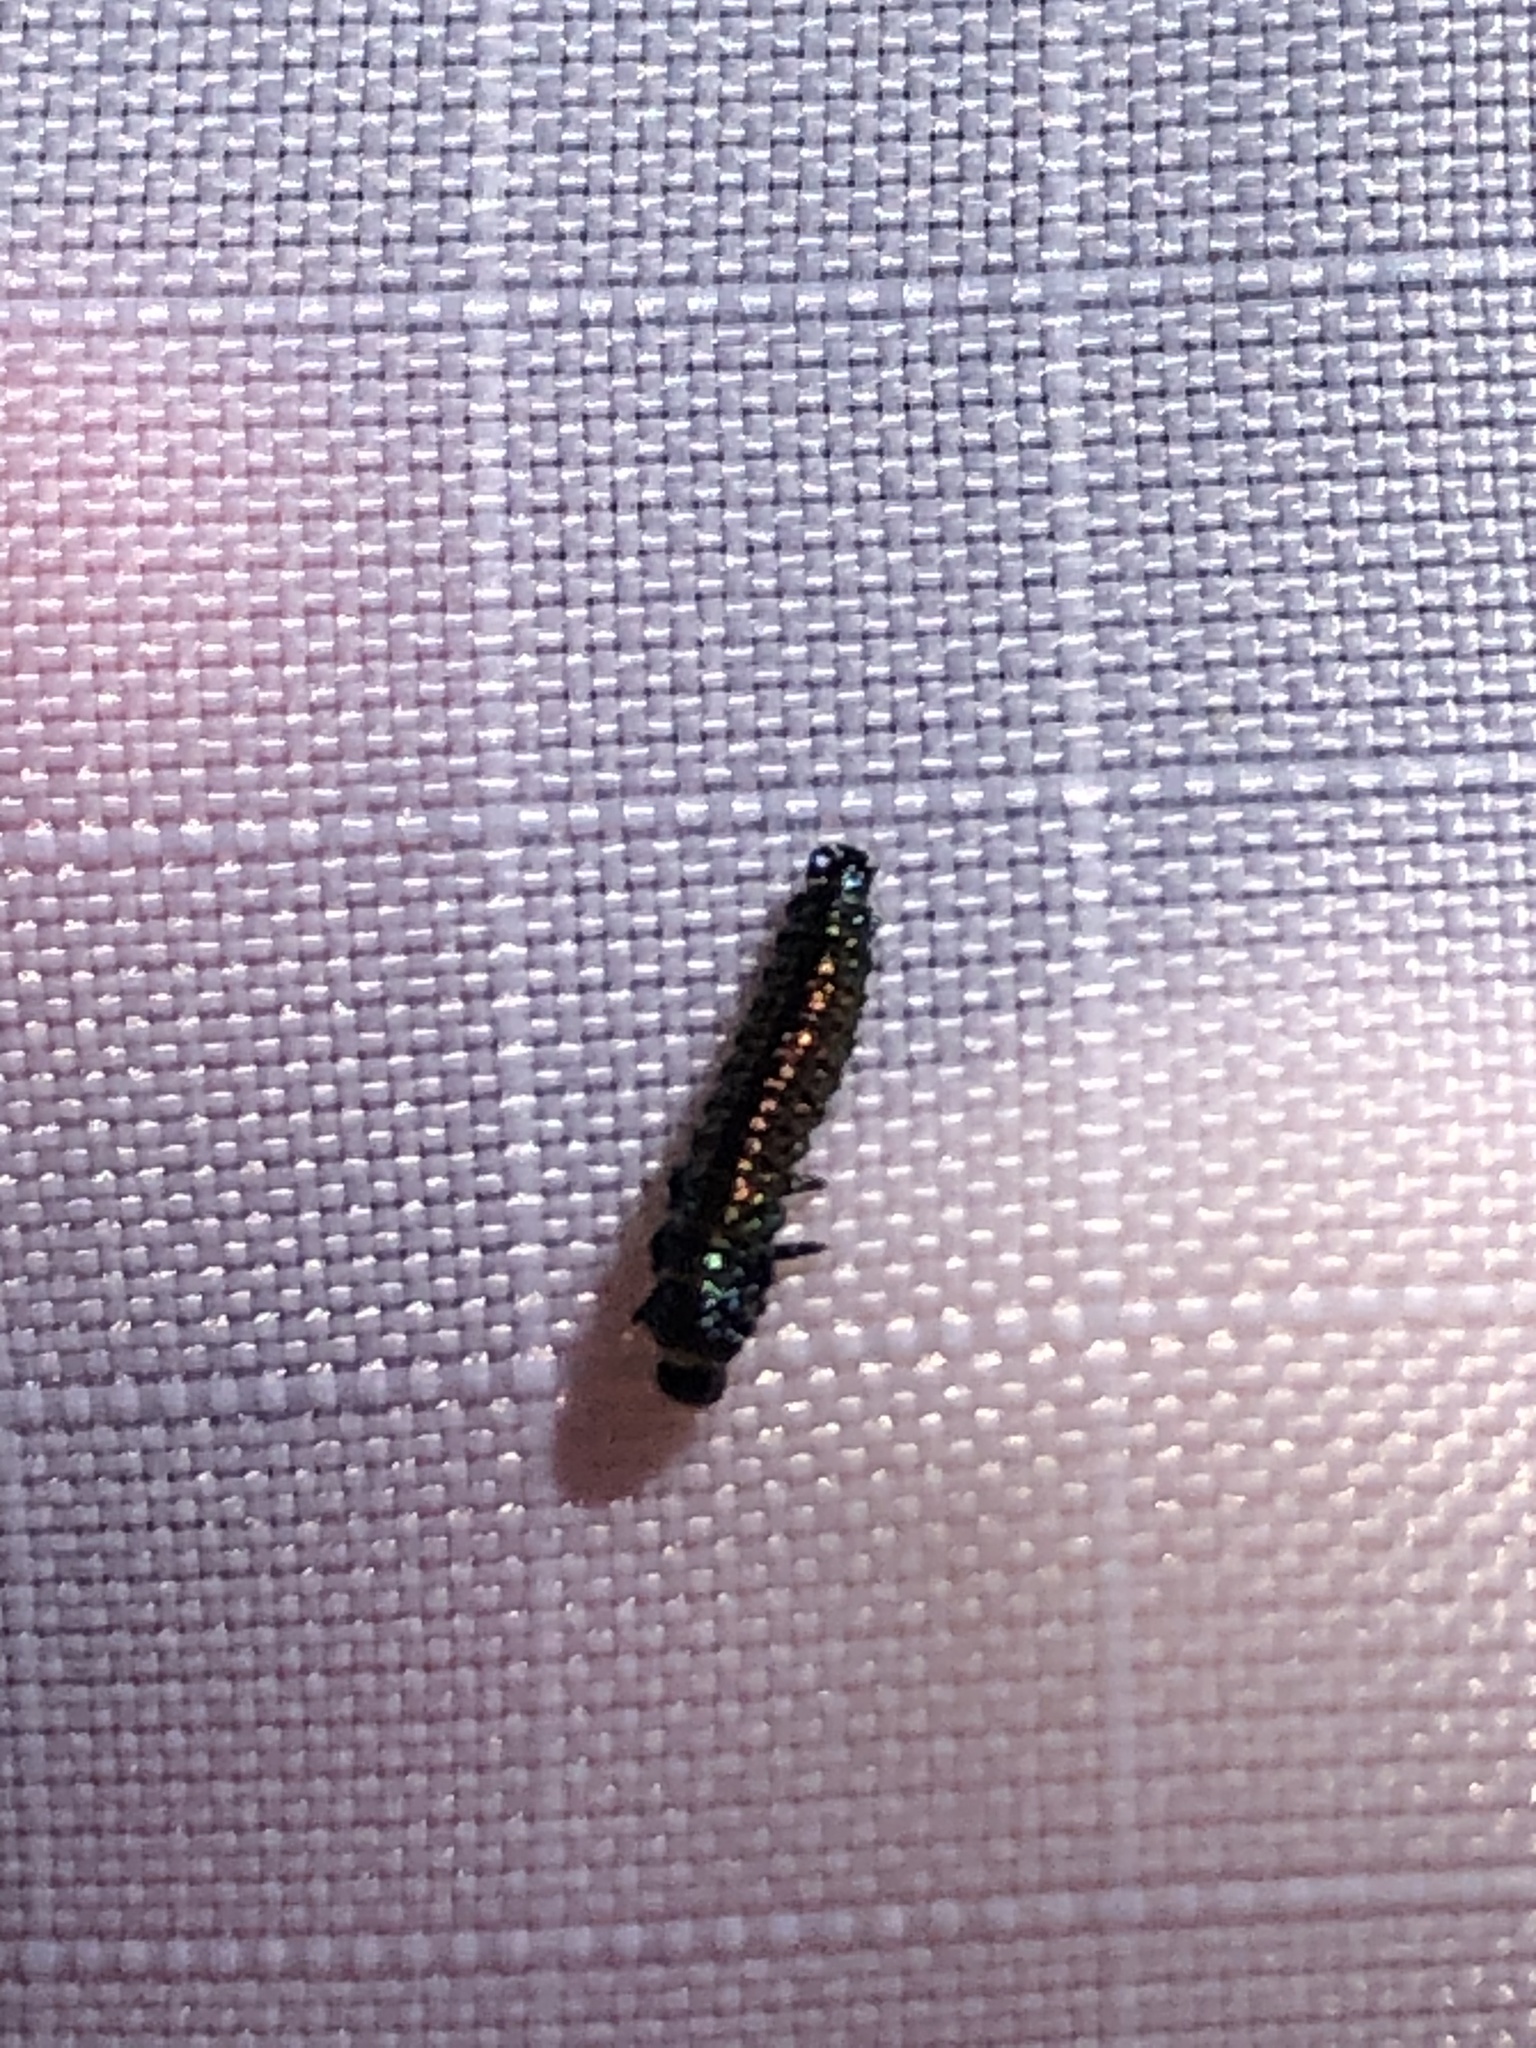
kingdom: Animalia
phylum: Arthropoda
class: Insecta
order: Coleoptera
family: Chrysomelidae
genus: Trirhabda
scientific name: Trirhabda bacharidis
